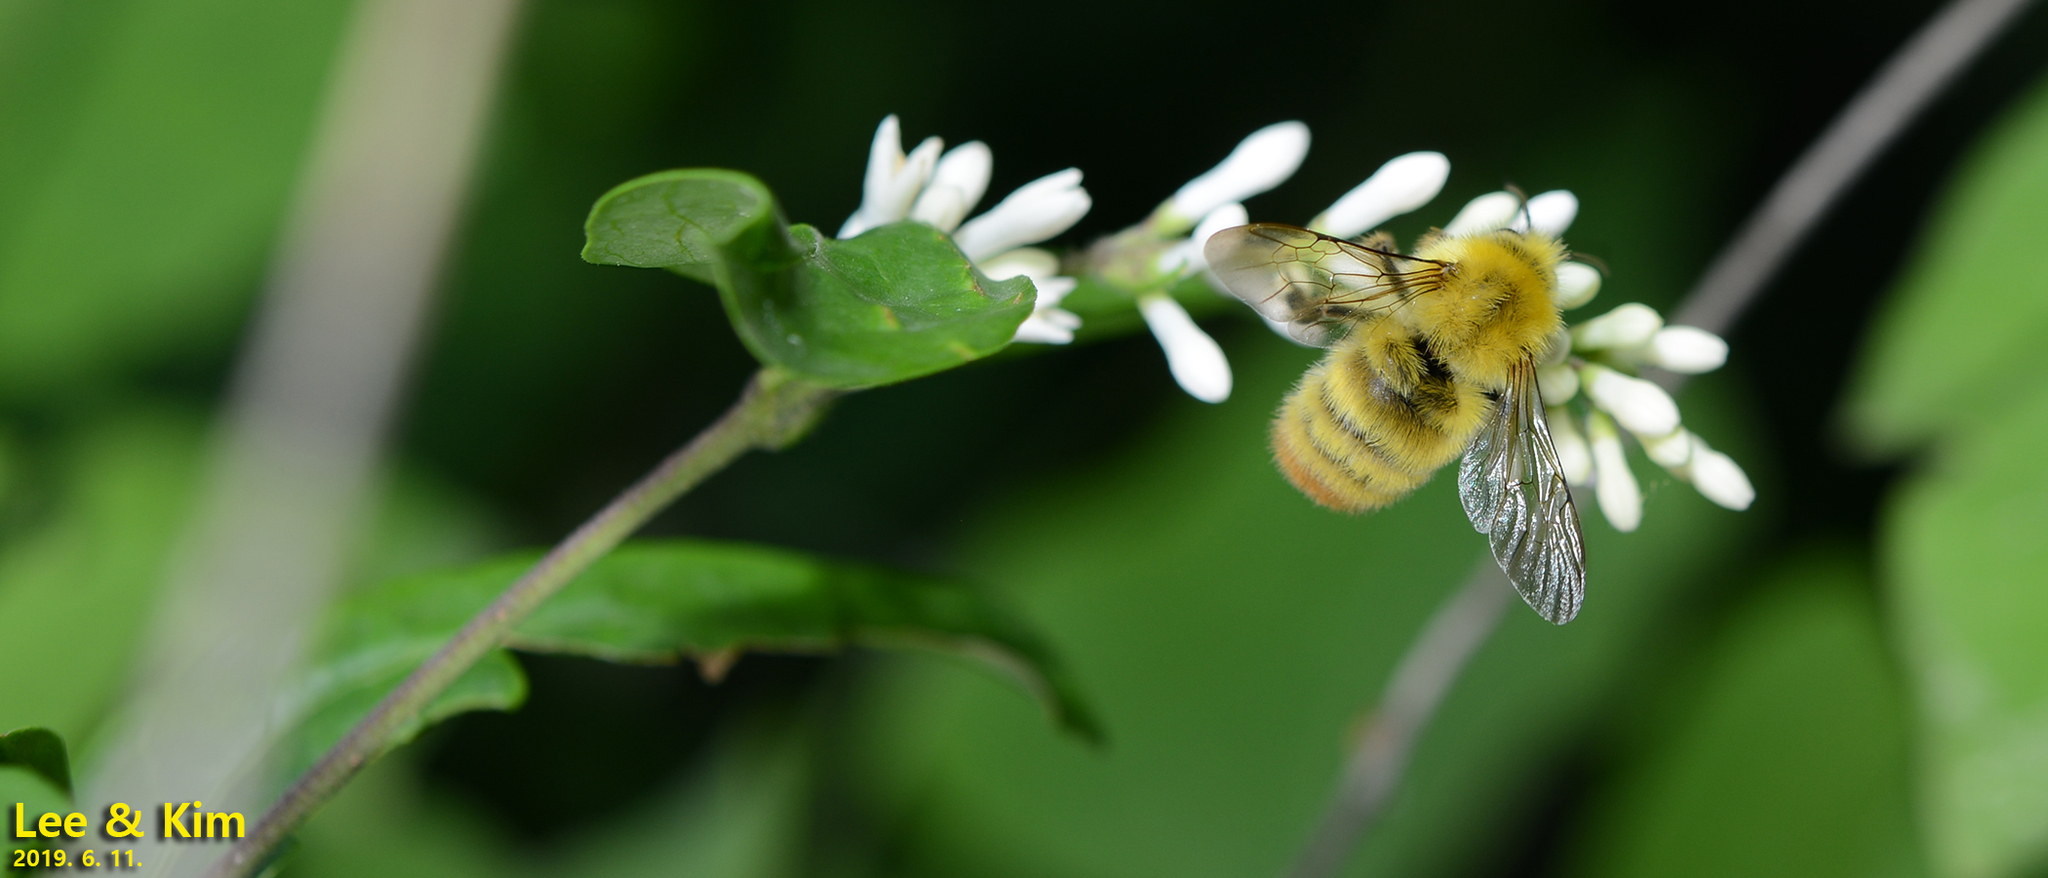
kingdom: Animalia
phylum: Arthropoda
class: Insecta
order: Hymenoptera
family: Apidae
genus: Bombus
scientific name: Bombus ardens
